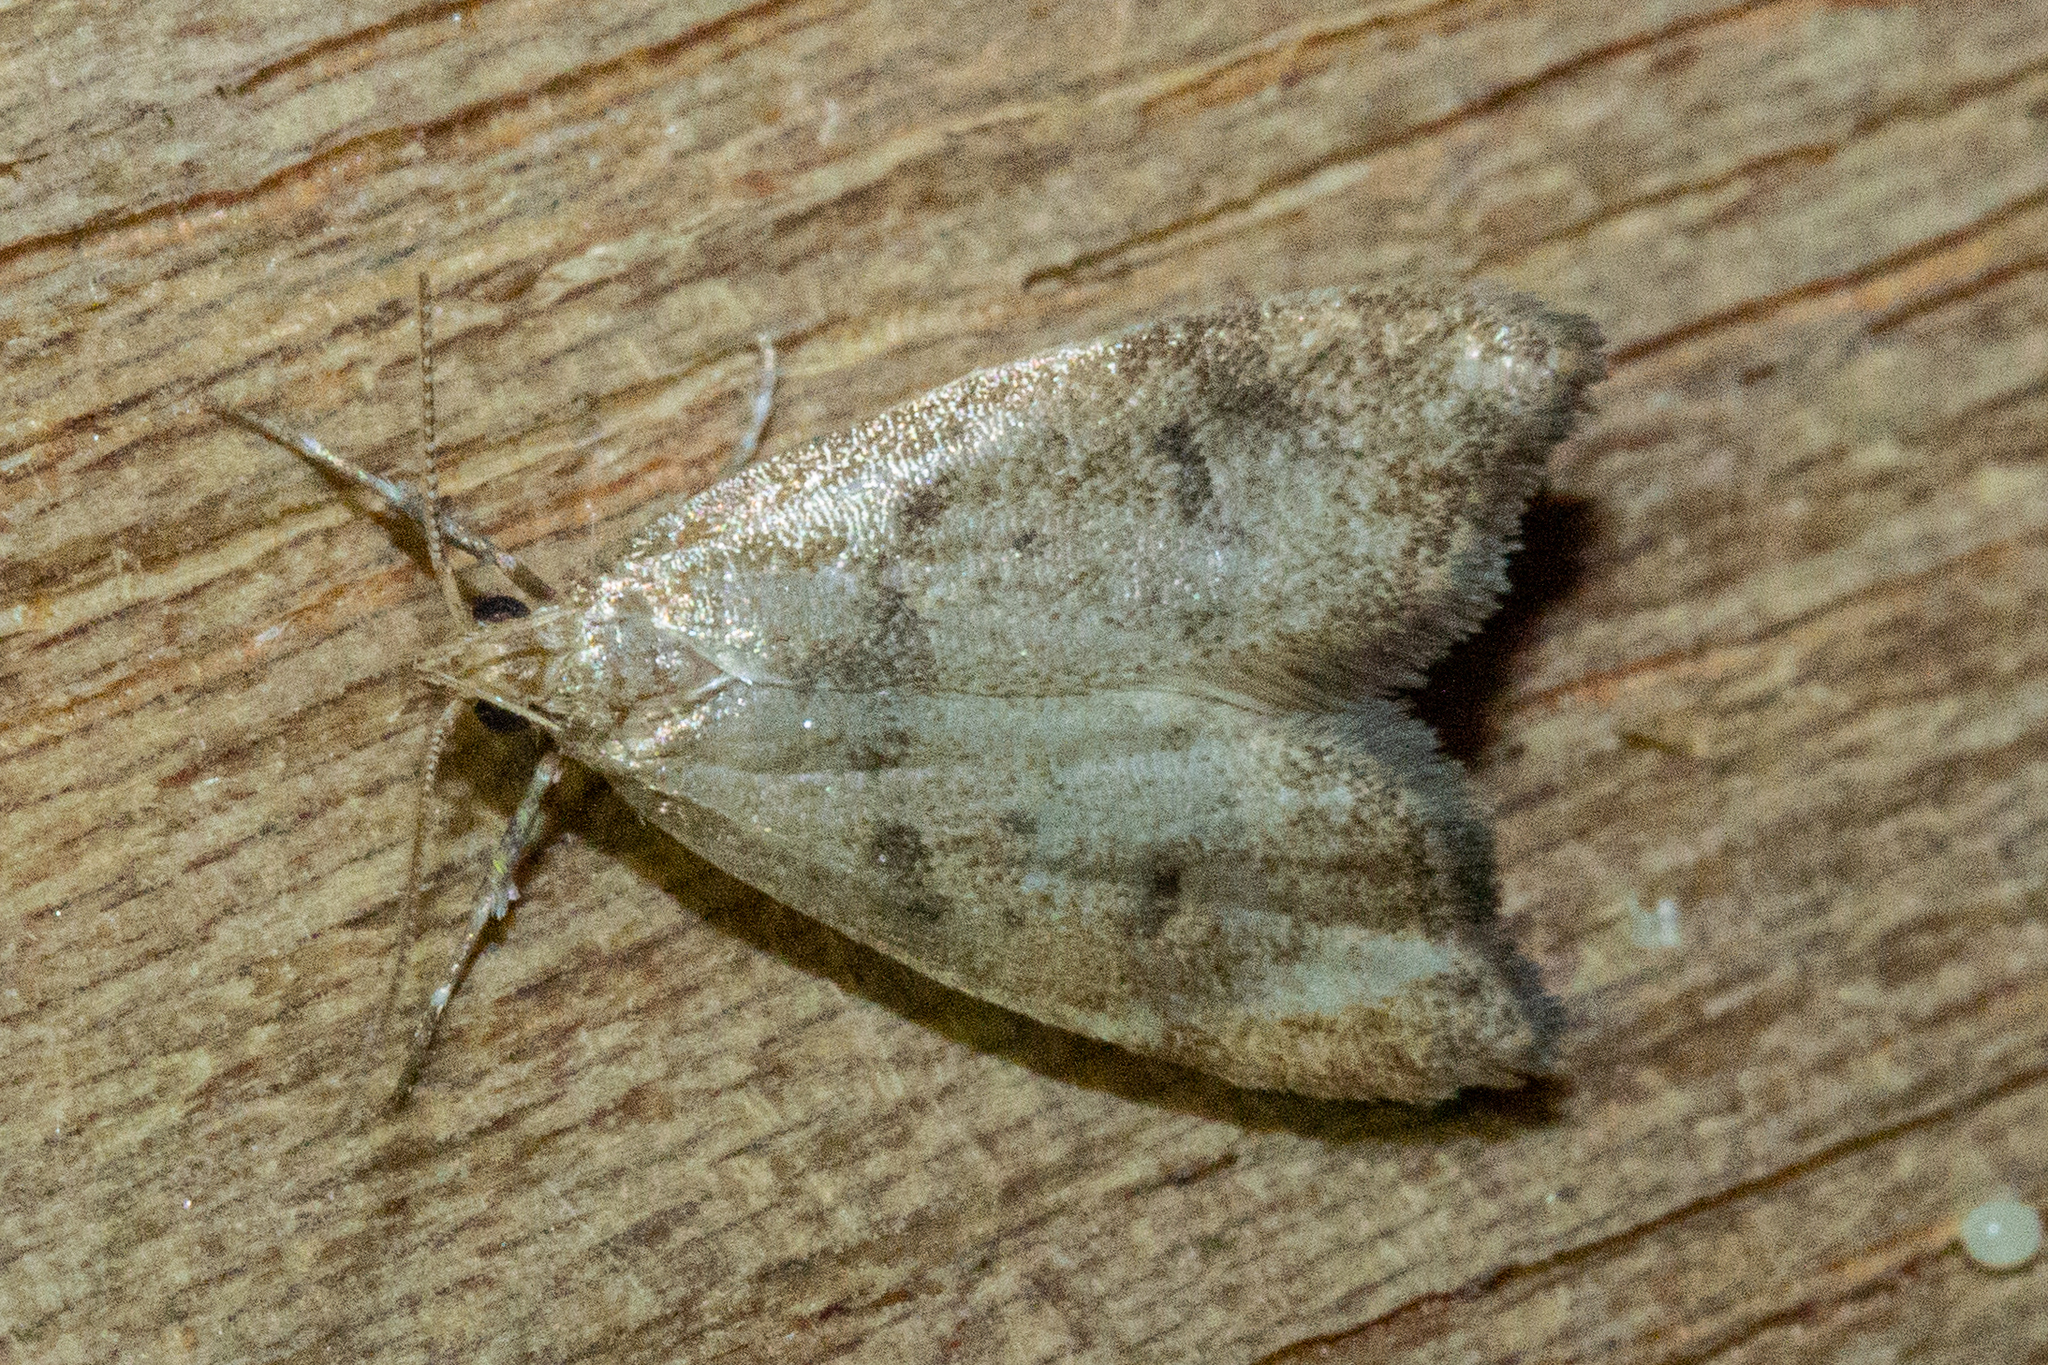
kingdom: Animalia
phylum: Arthropoda
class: Insecta
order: Lepidoptera
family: Oecophoridae
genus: Gymnobathra
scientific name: Gymnobathra hamatella
